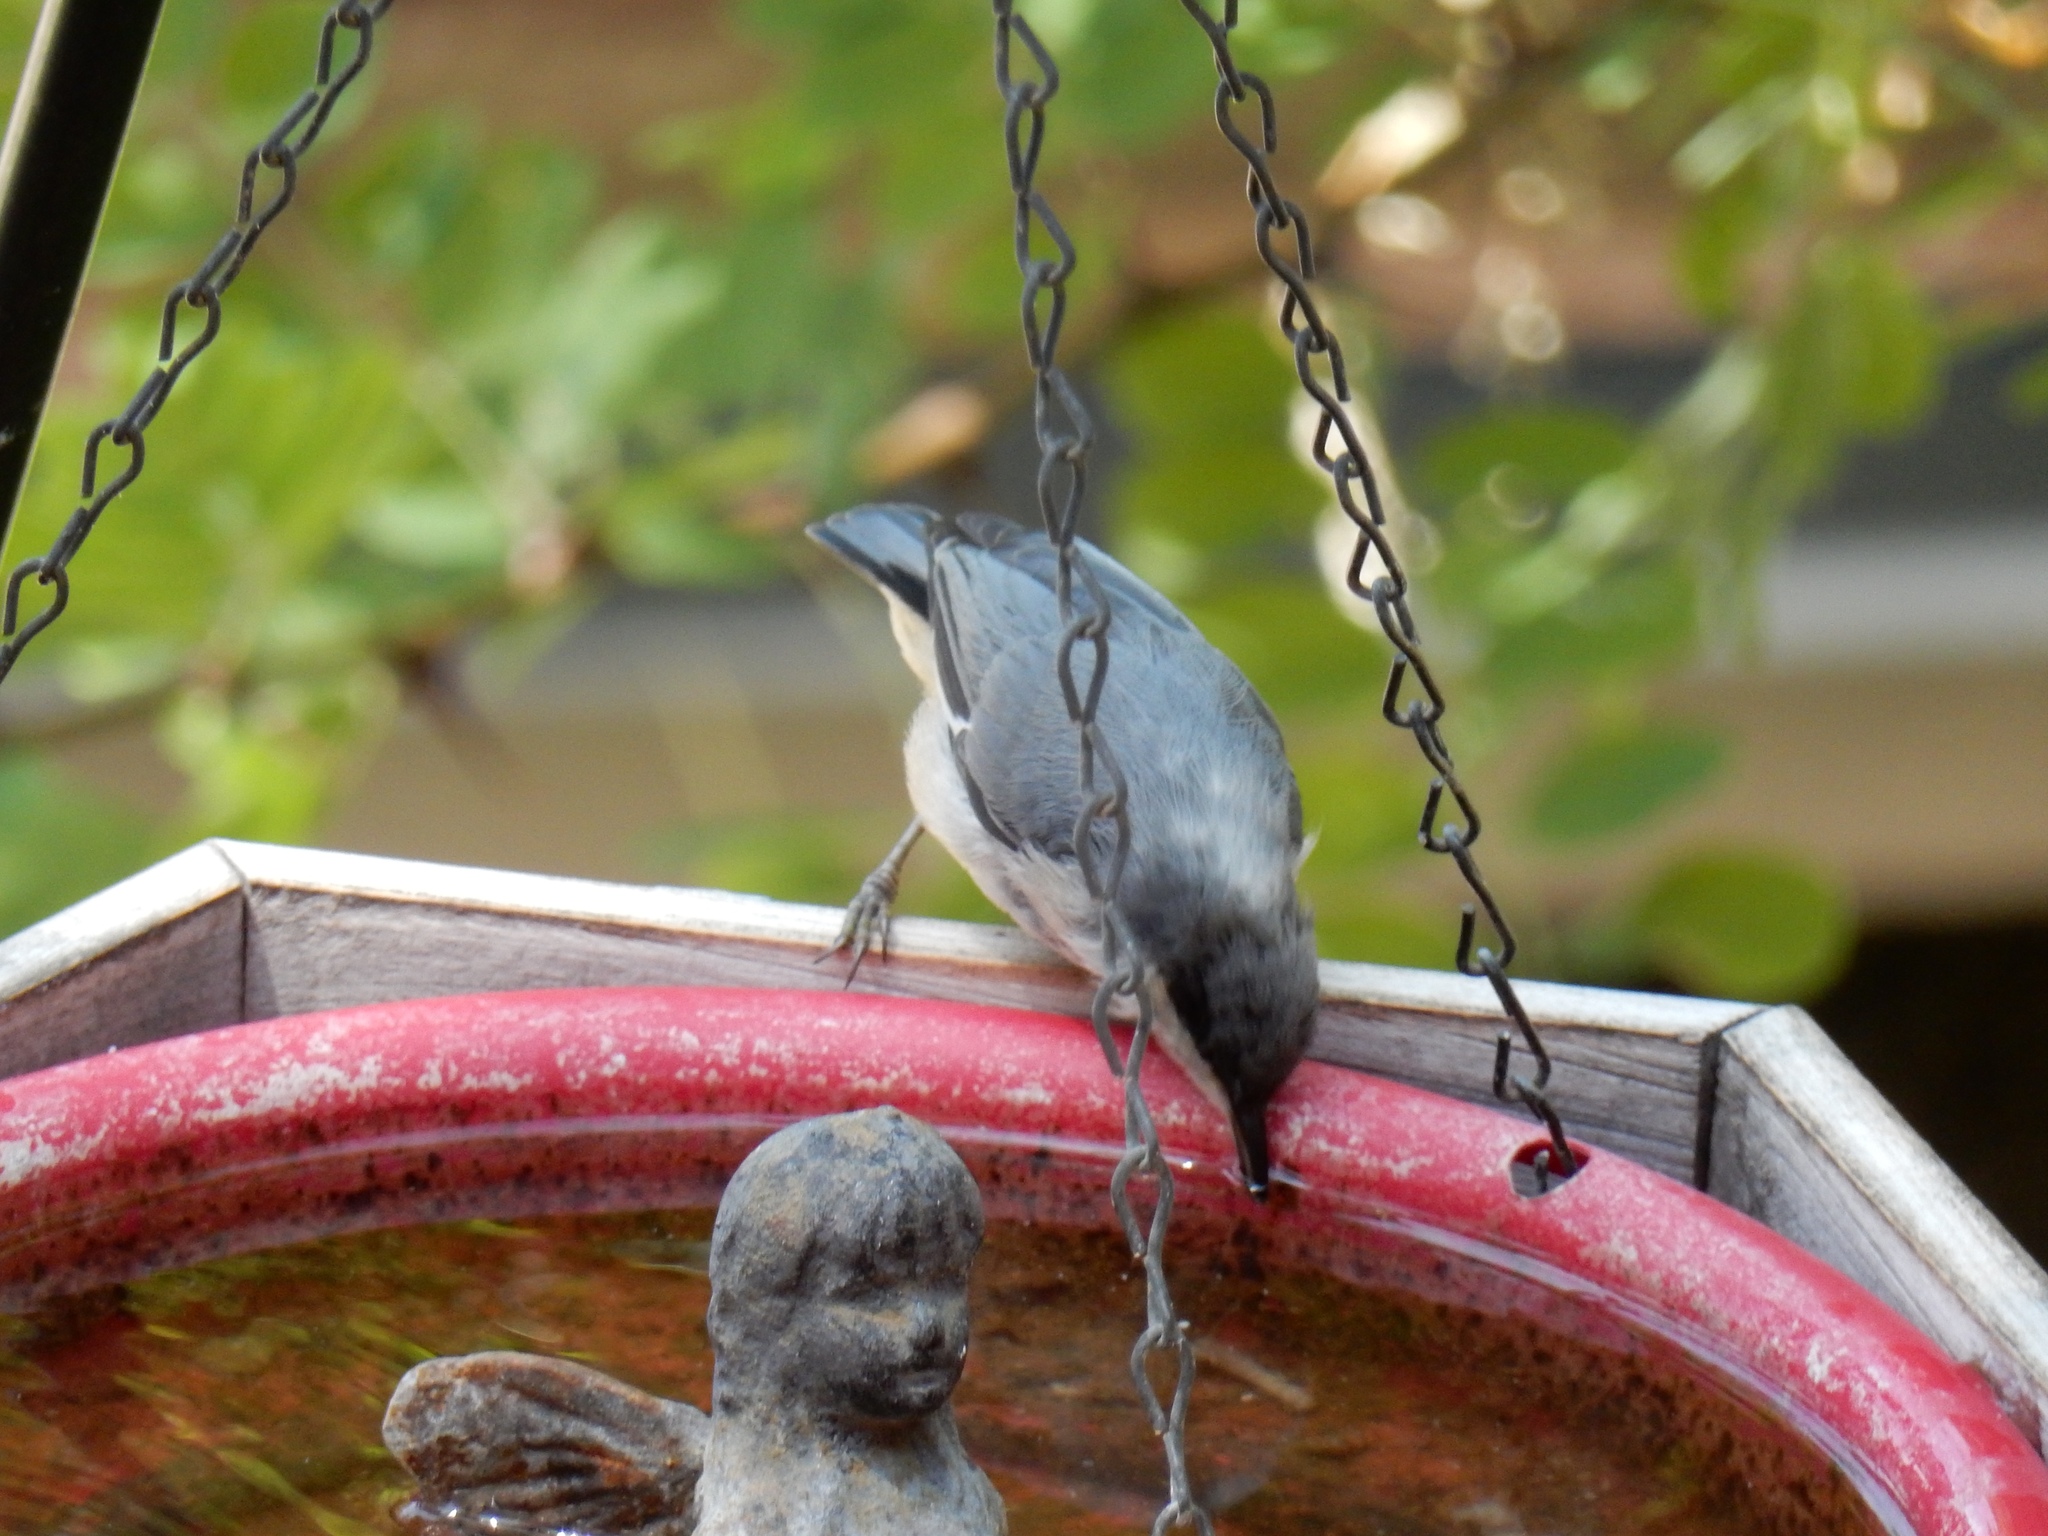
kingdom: Animalia
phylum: Chordata
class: Aves
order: Passeriformes
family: Sittidae
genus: Sitta
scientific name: Sitta pygmaea
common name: Pygmy nuthatch
